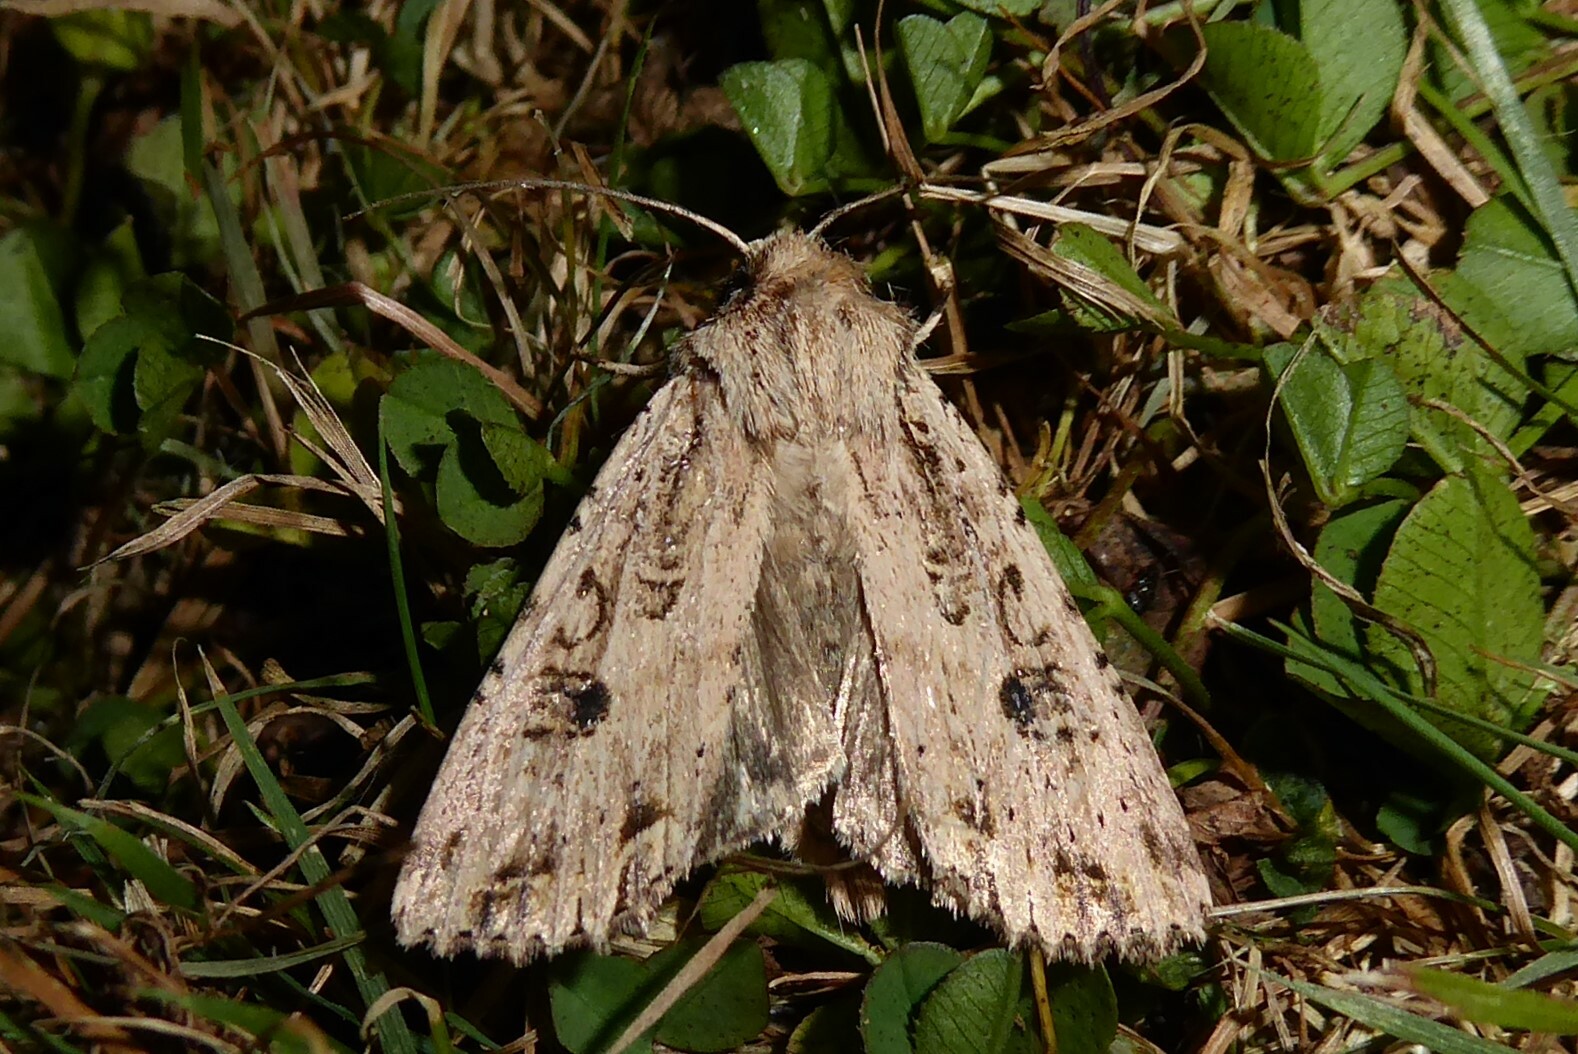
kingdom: Animalia
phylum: Arthropoda
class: Insecta
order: Lepidoptera
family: Noctuidae
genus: Ichneutica
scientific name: Ichneutica lignana
